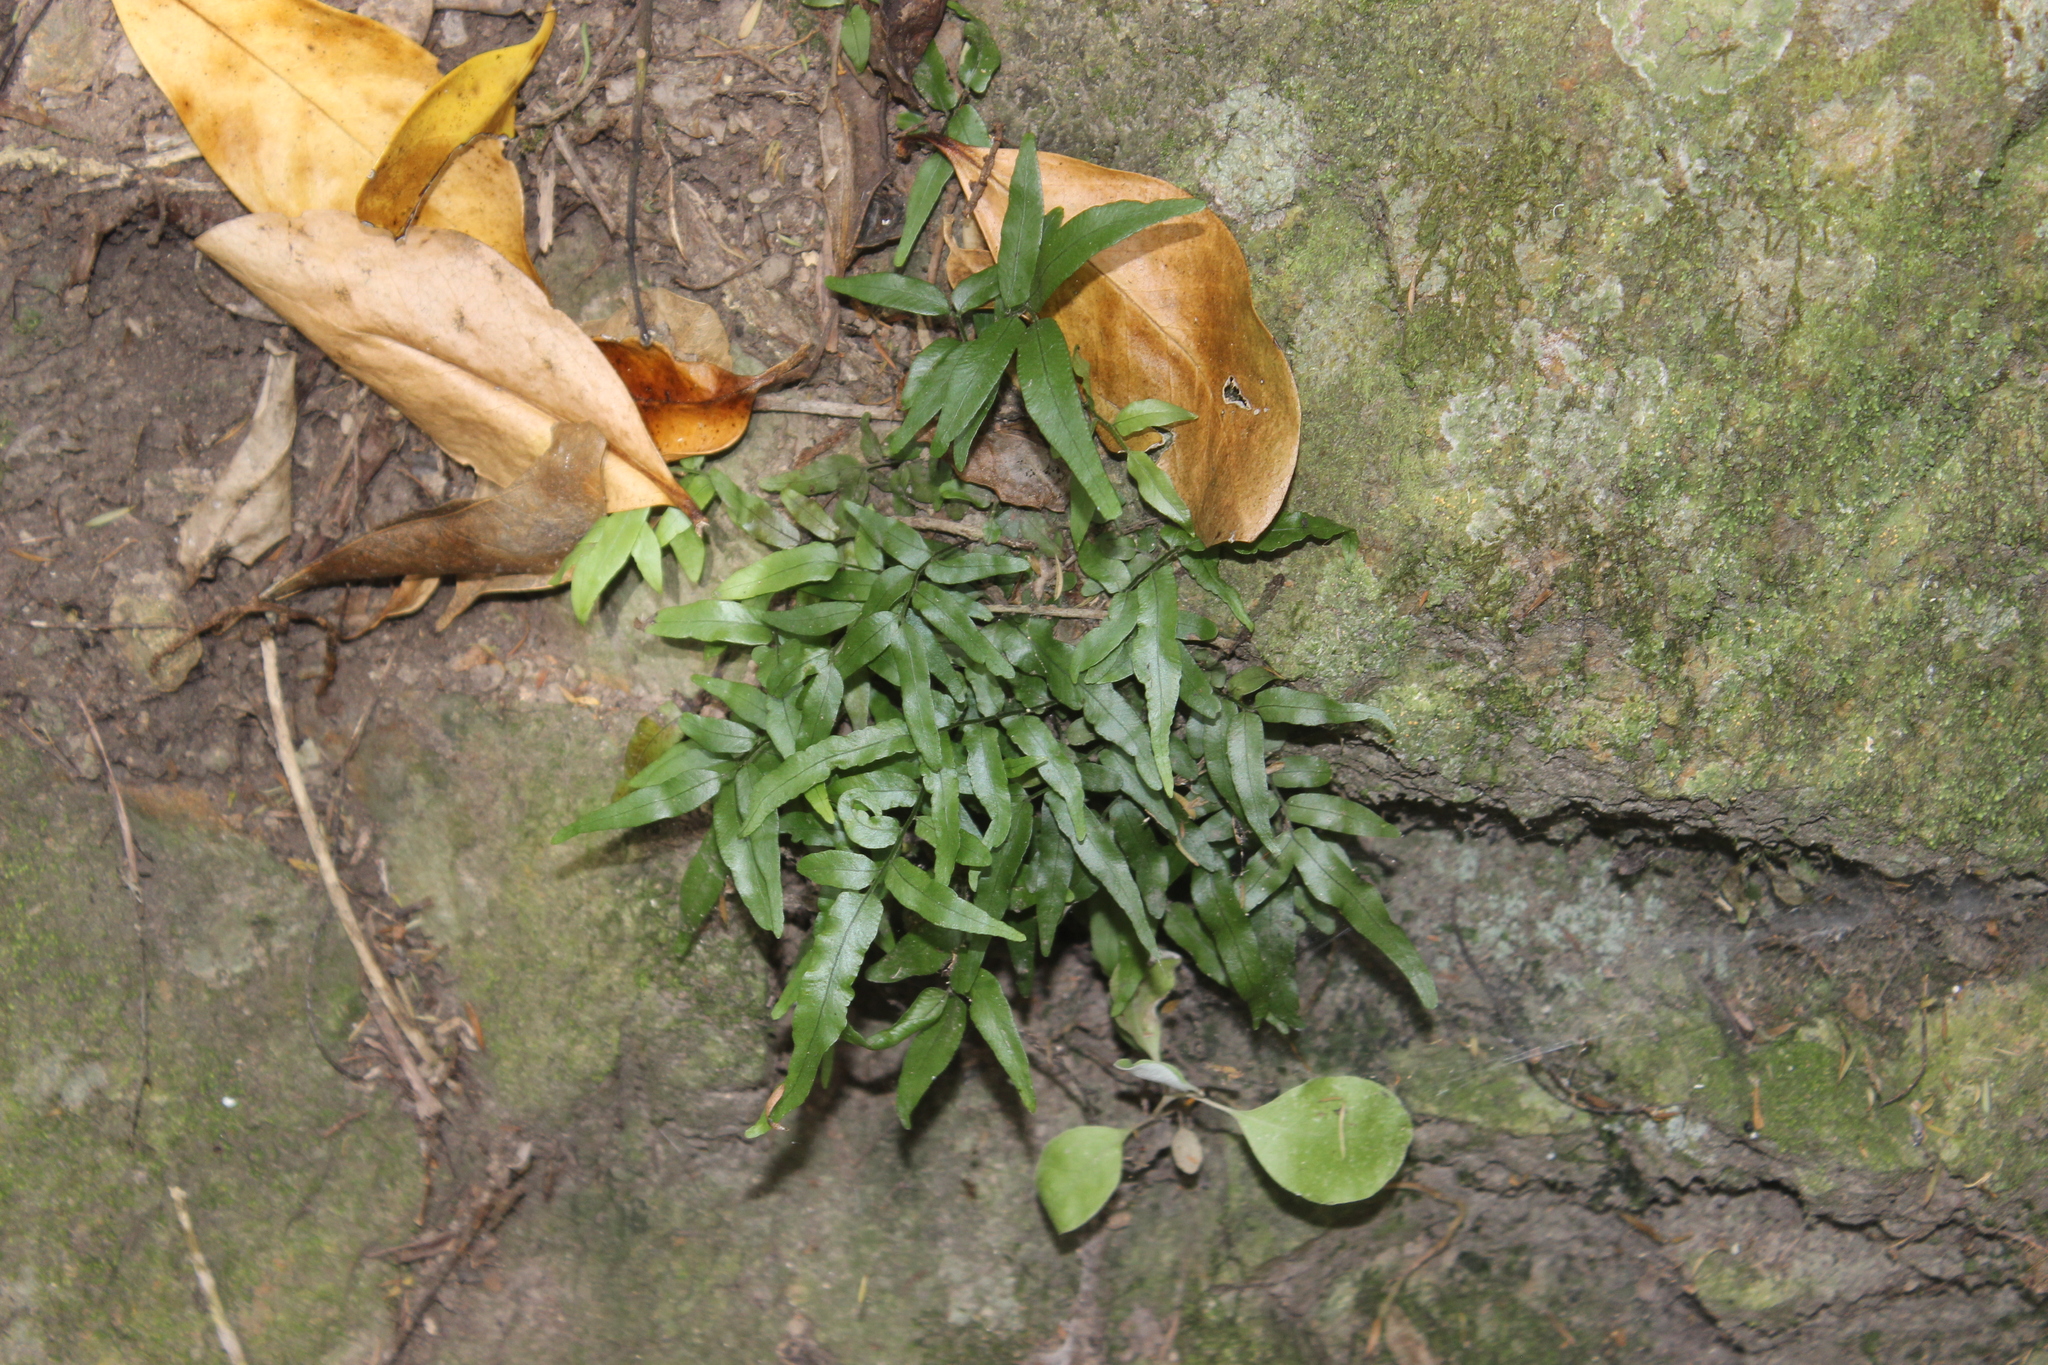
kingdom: Plantae
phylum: Tracheophyta
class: Polypodiopsida
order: Polypodiales
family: Tectariaceae
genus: Arthropteris
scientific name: Arthropteris tenella
